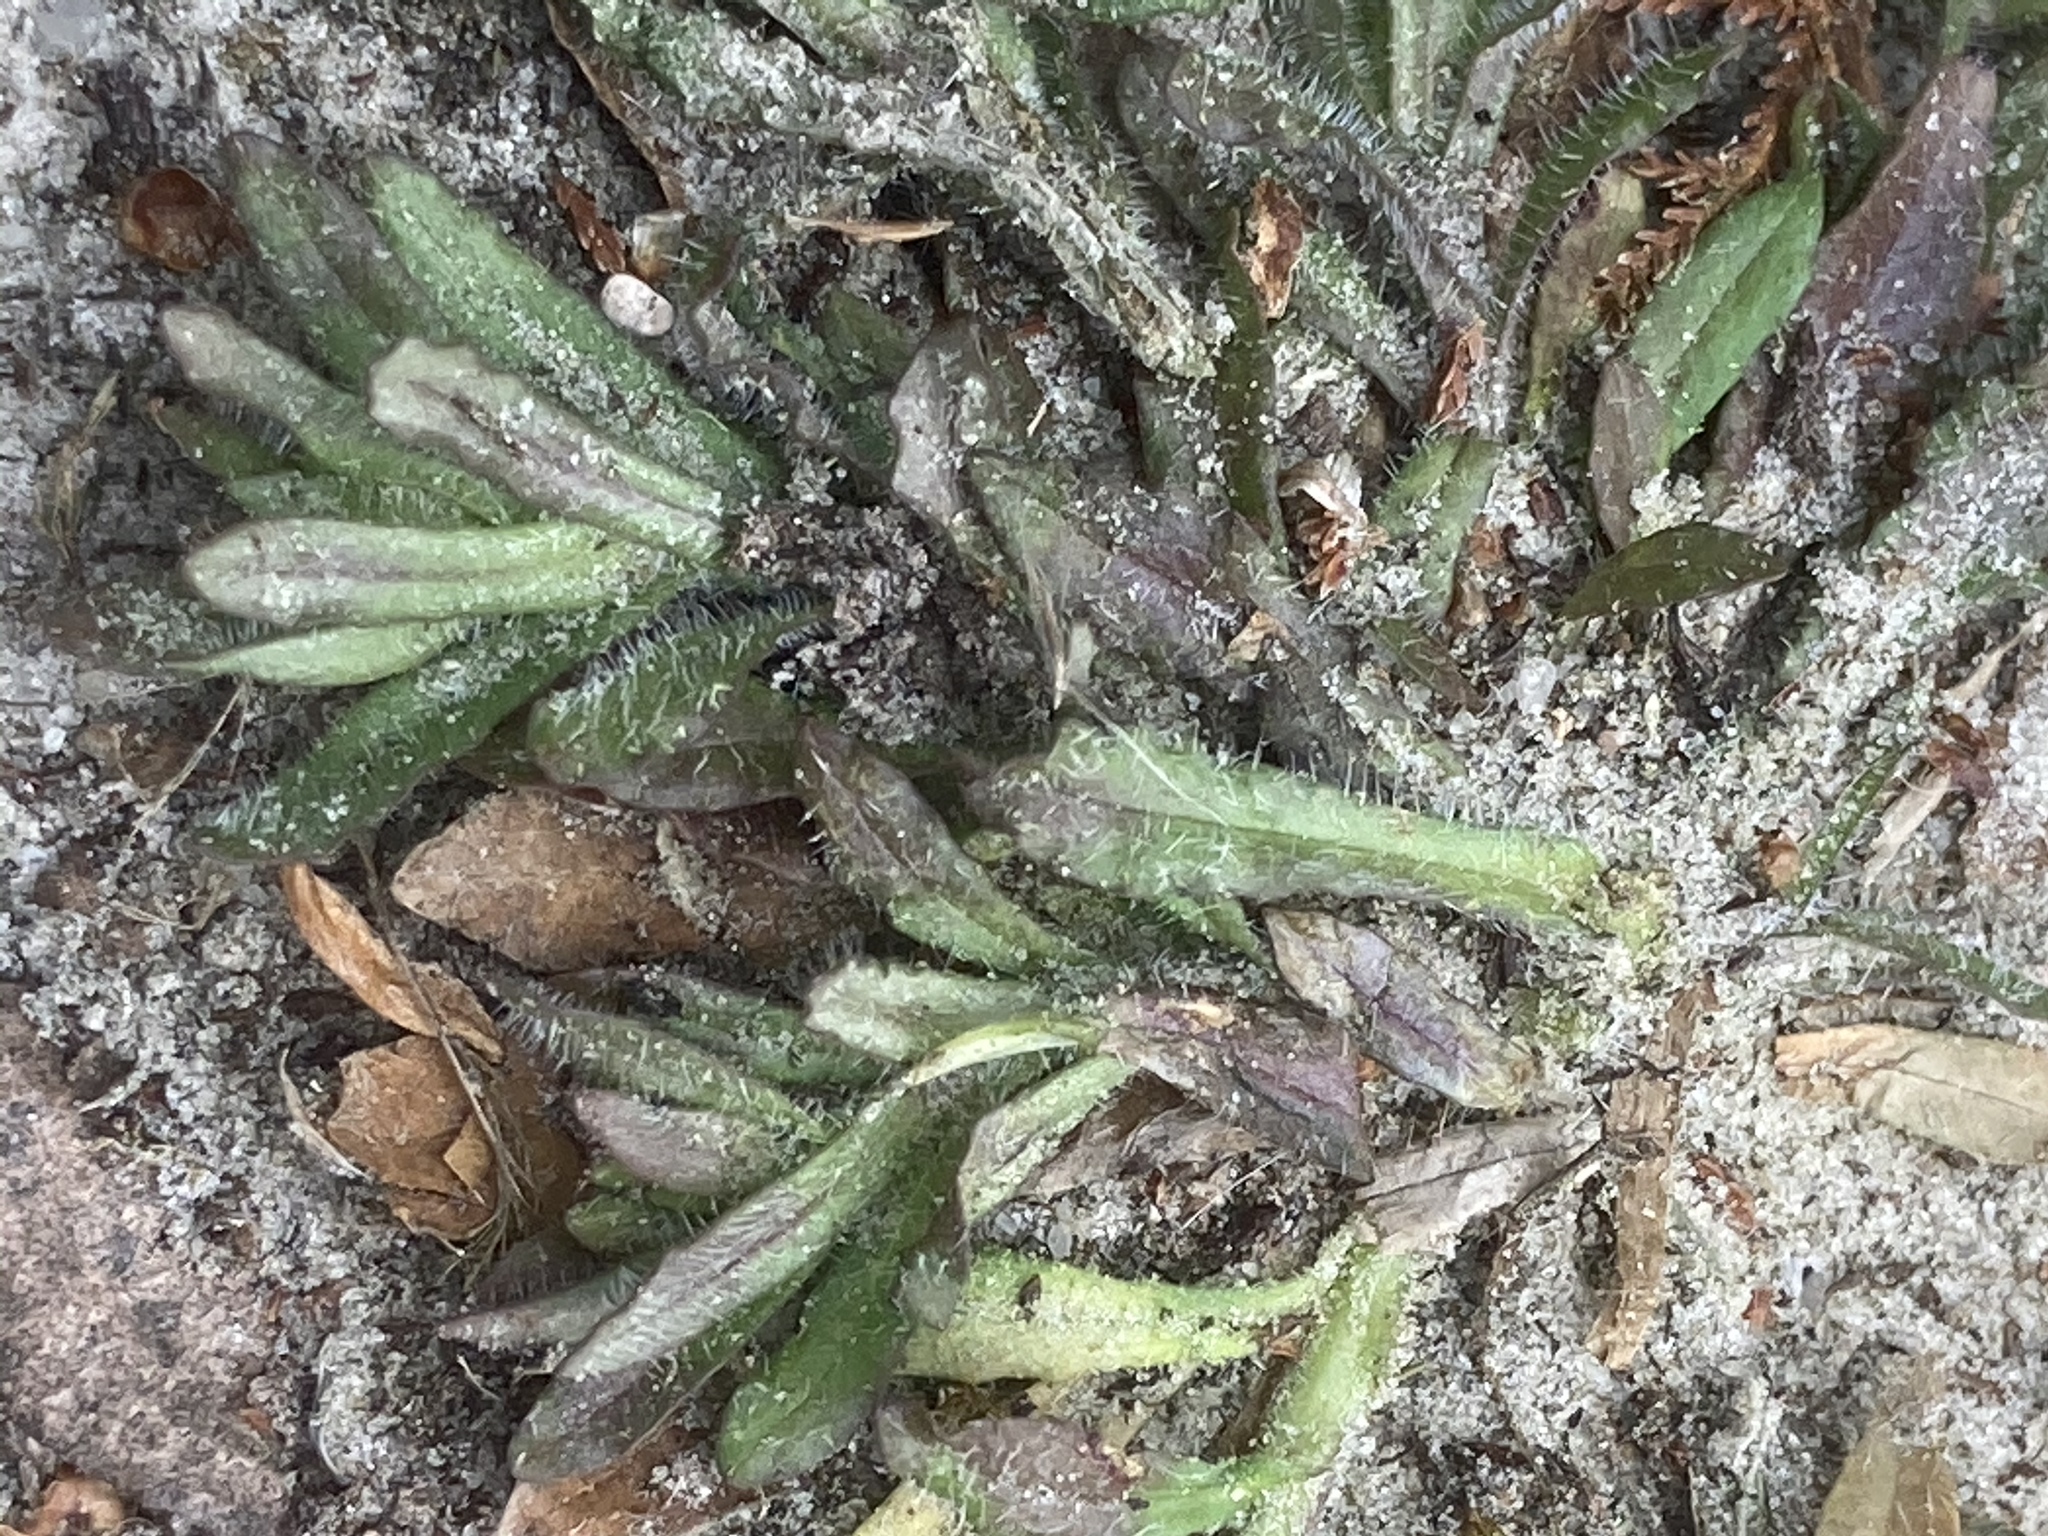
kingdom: Plantae
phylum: Tracheophyta
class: Magnoliopsida
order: Asterales
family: Campanulaceae
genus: Jasione
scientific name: Jasione montana
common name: Sheep's-bit
